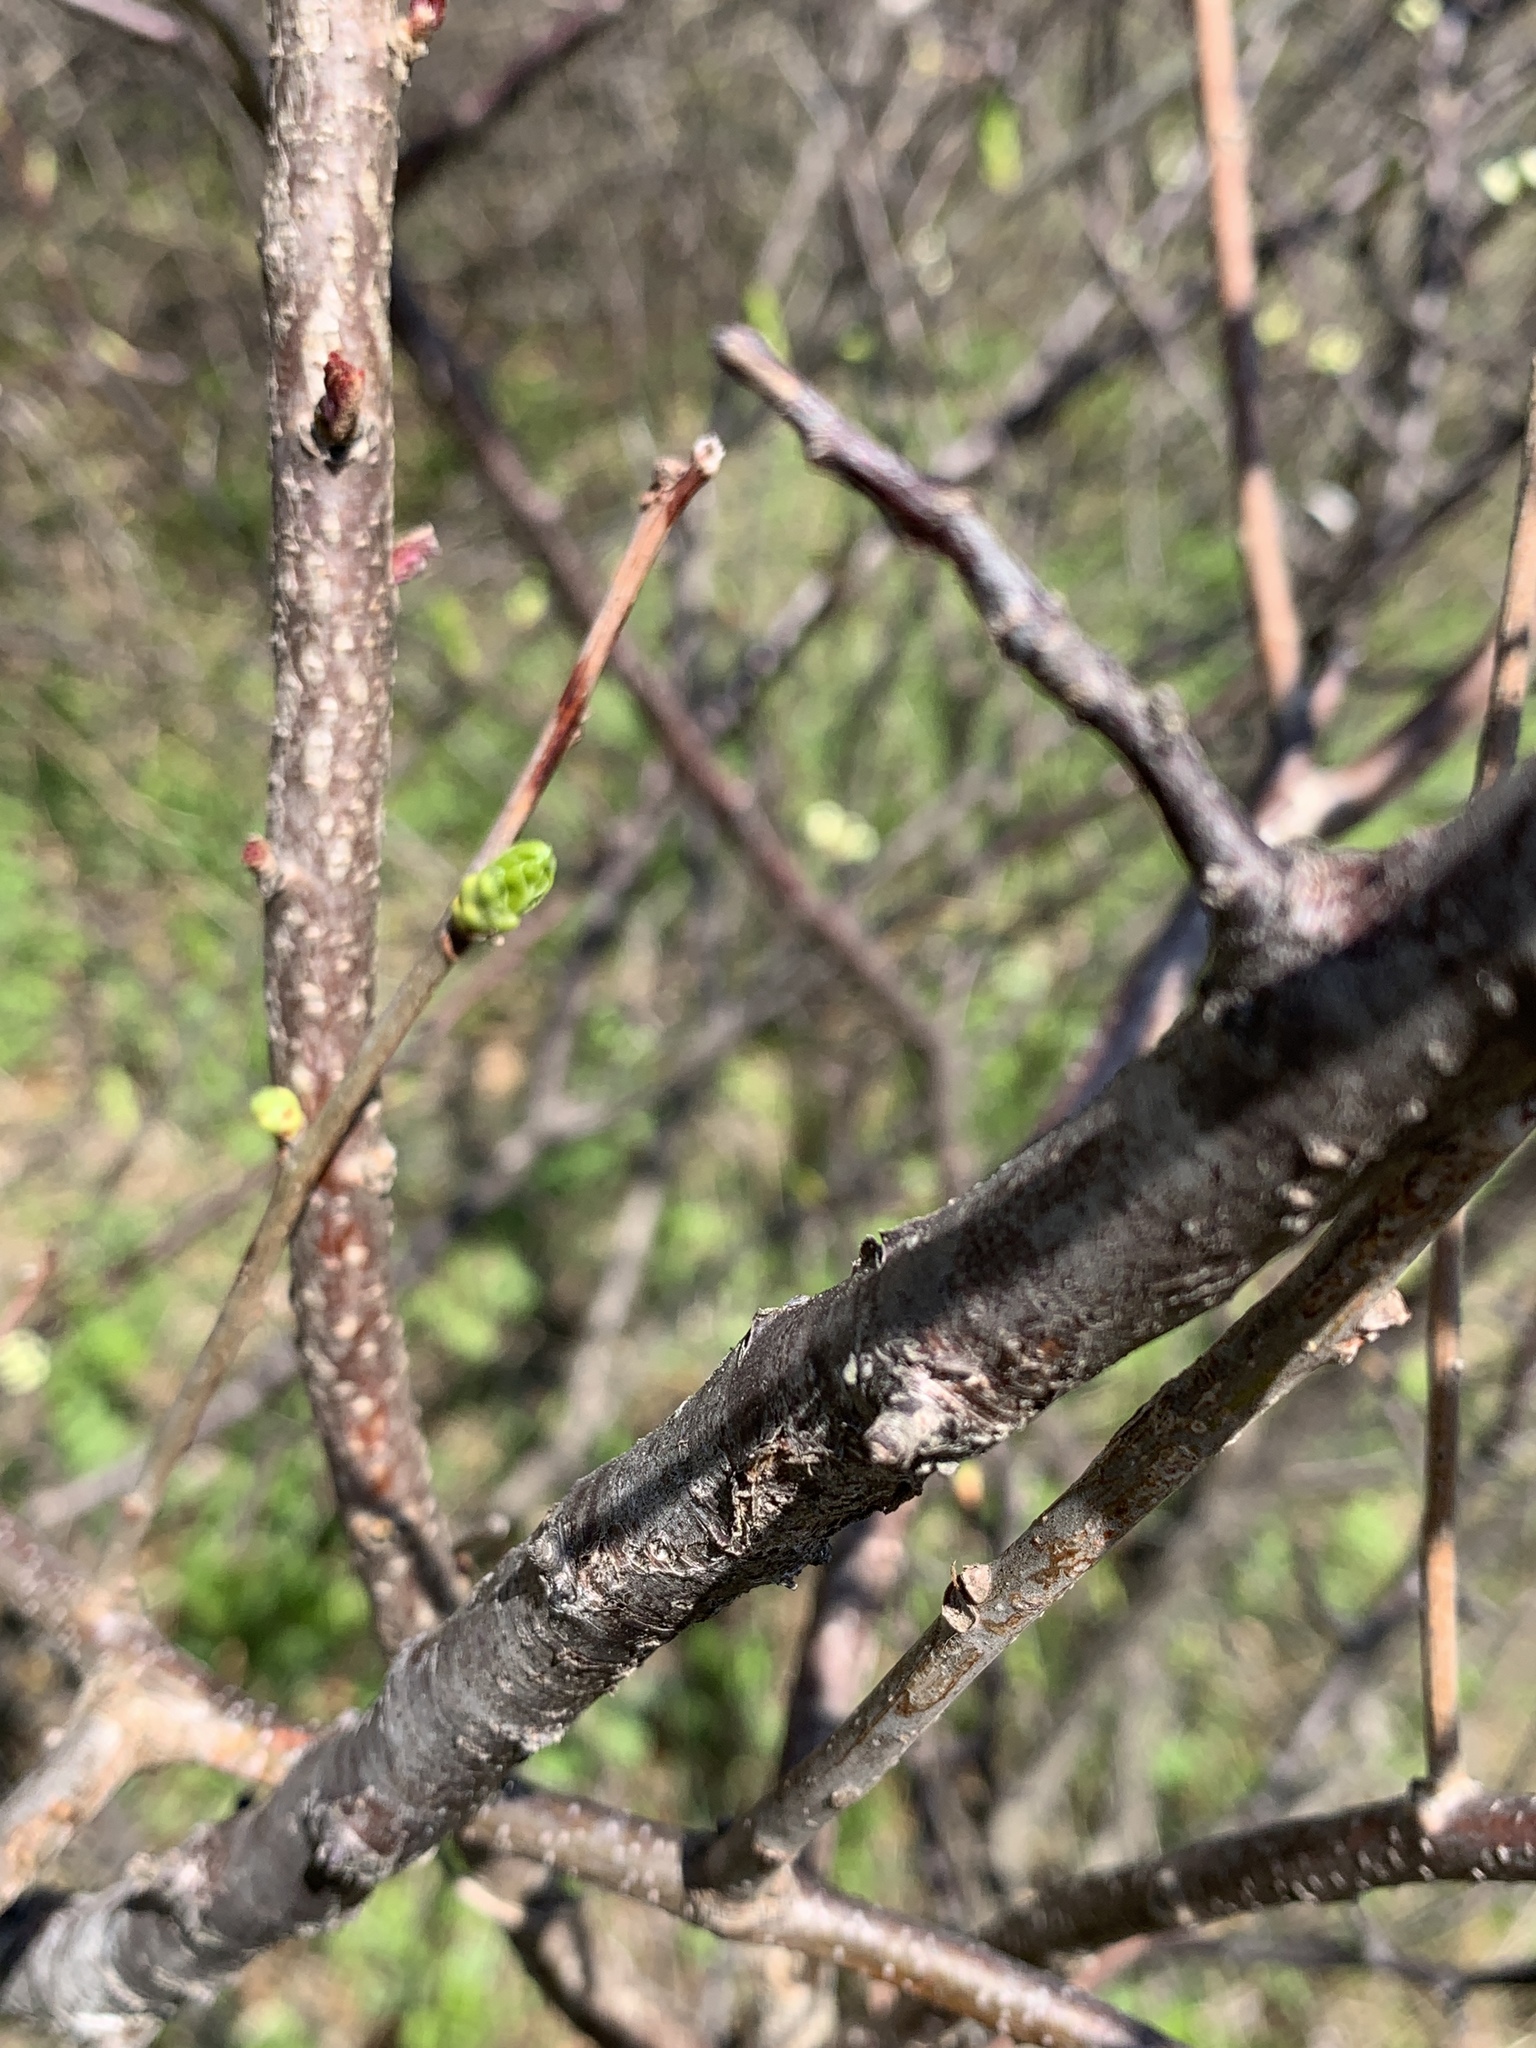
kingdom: Plantae
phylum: Tracheophyta
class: Magnoliopsida
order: Rosales
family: Rosaceae
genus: Prunus
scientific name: Prunus maritima
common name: Beach plum
